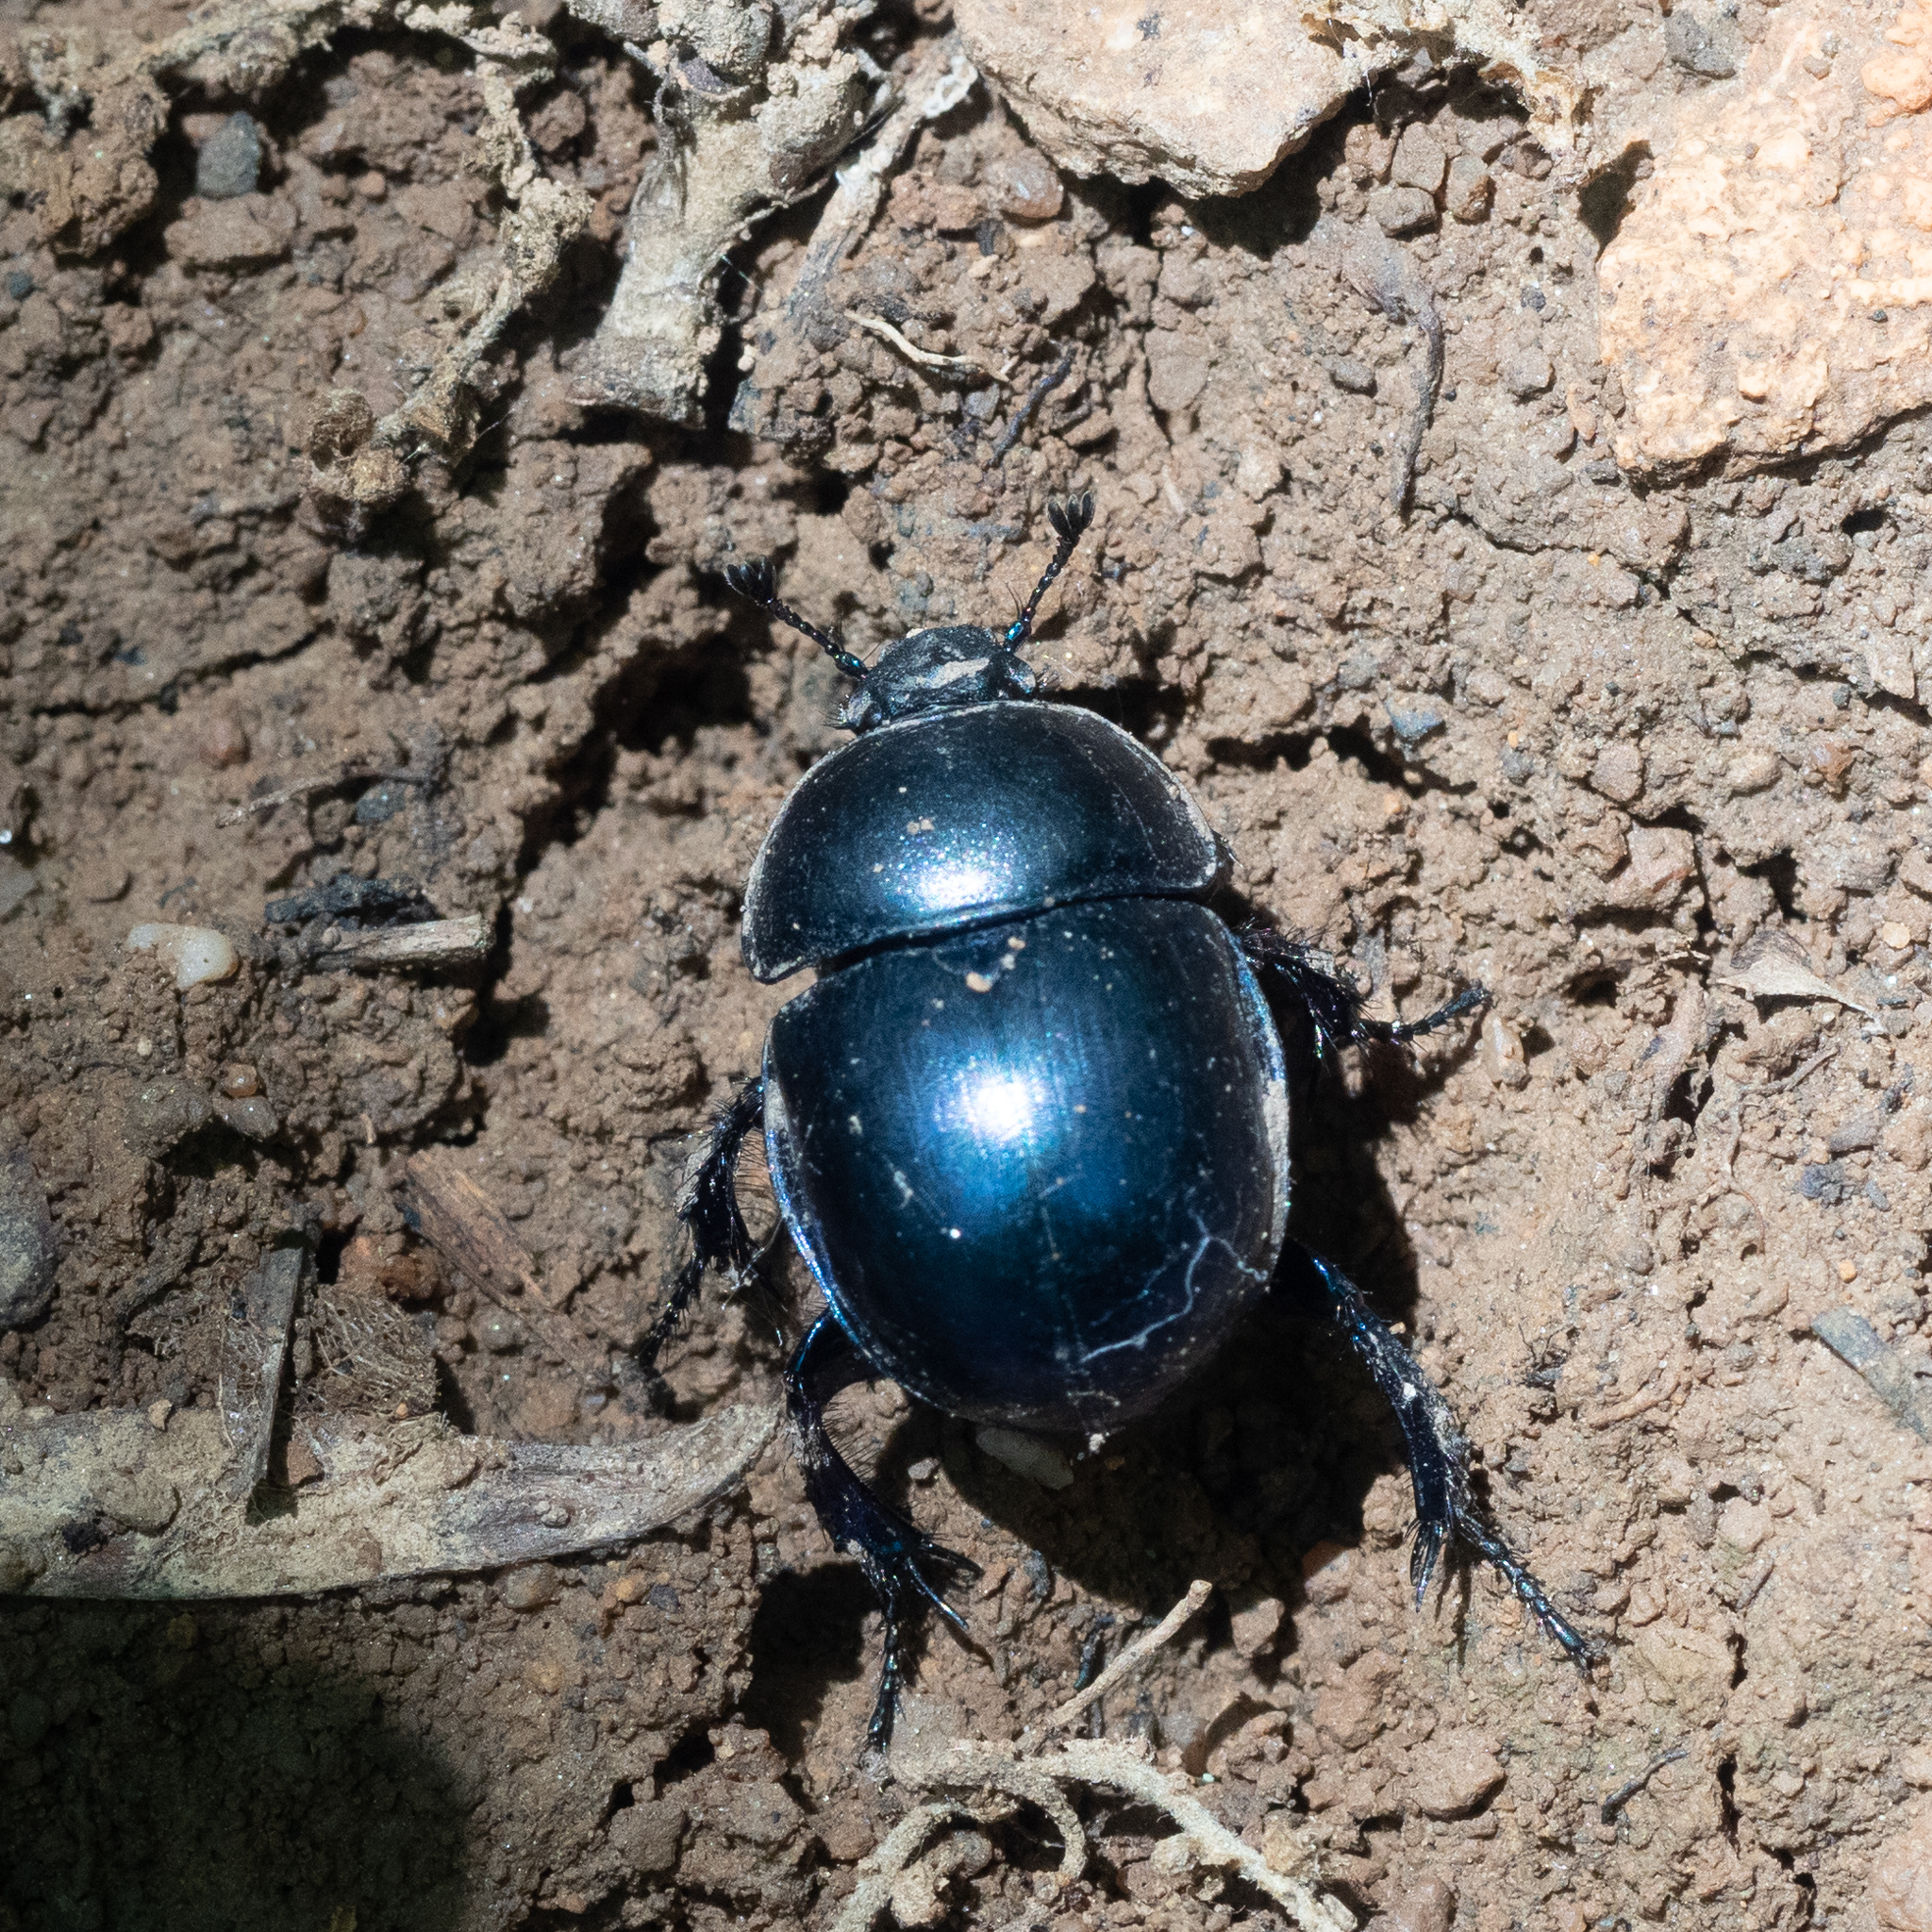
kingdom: Animalia
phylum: Arthropoda
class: Insecta
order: Coleoptera
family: Geotrupidae
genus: Trypocopris
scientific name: Trypocopris vernalis
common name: Spring dumbledor
